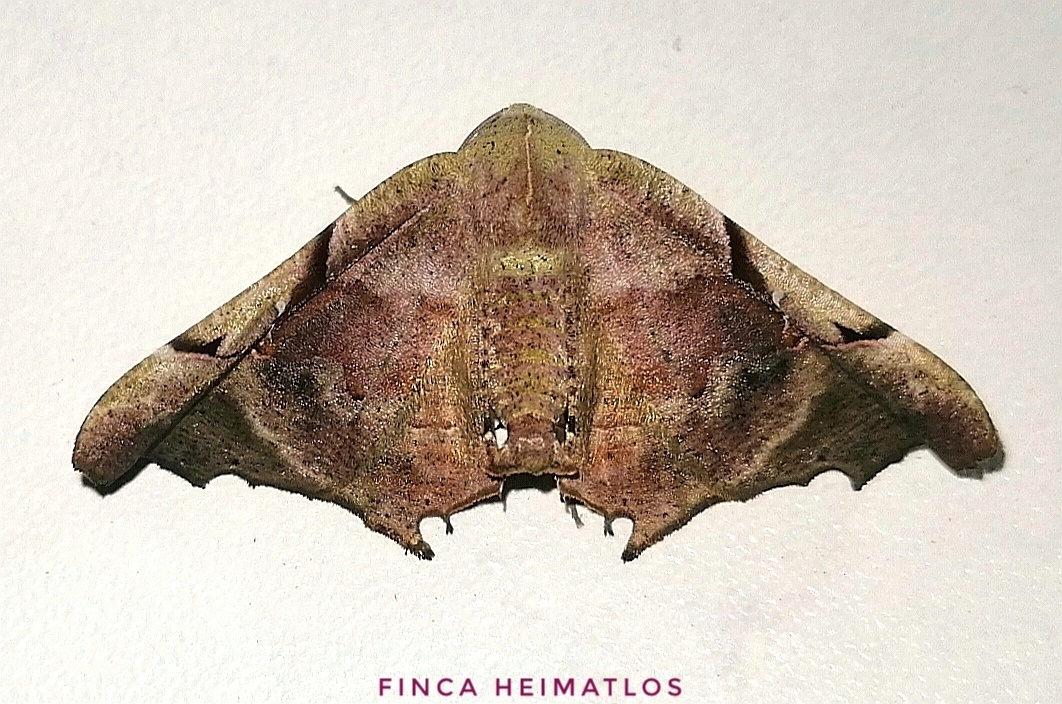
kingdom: Animalia
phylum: Arthropoda
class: Insecta
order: Lepidoptera
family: Geometridae
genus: Pero
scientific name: Pero incisa
